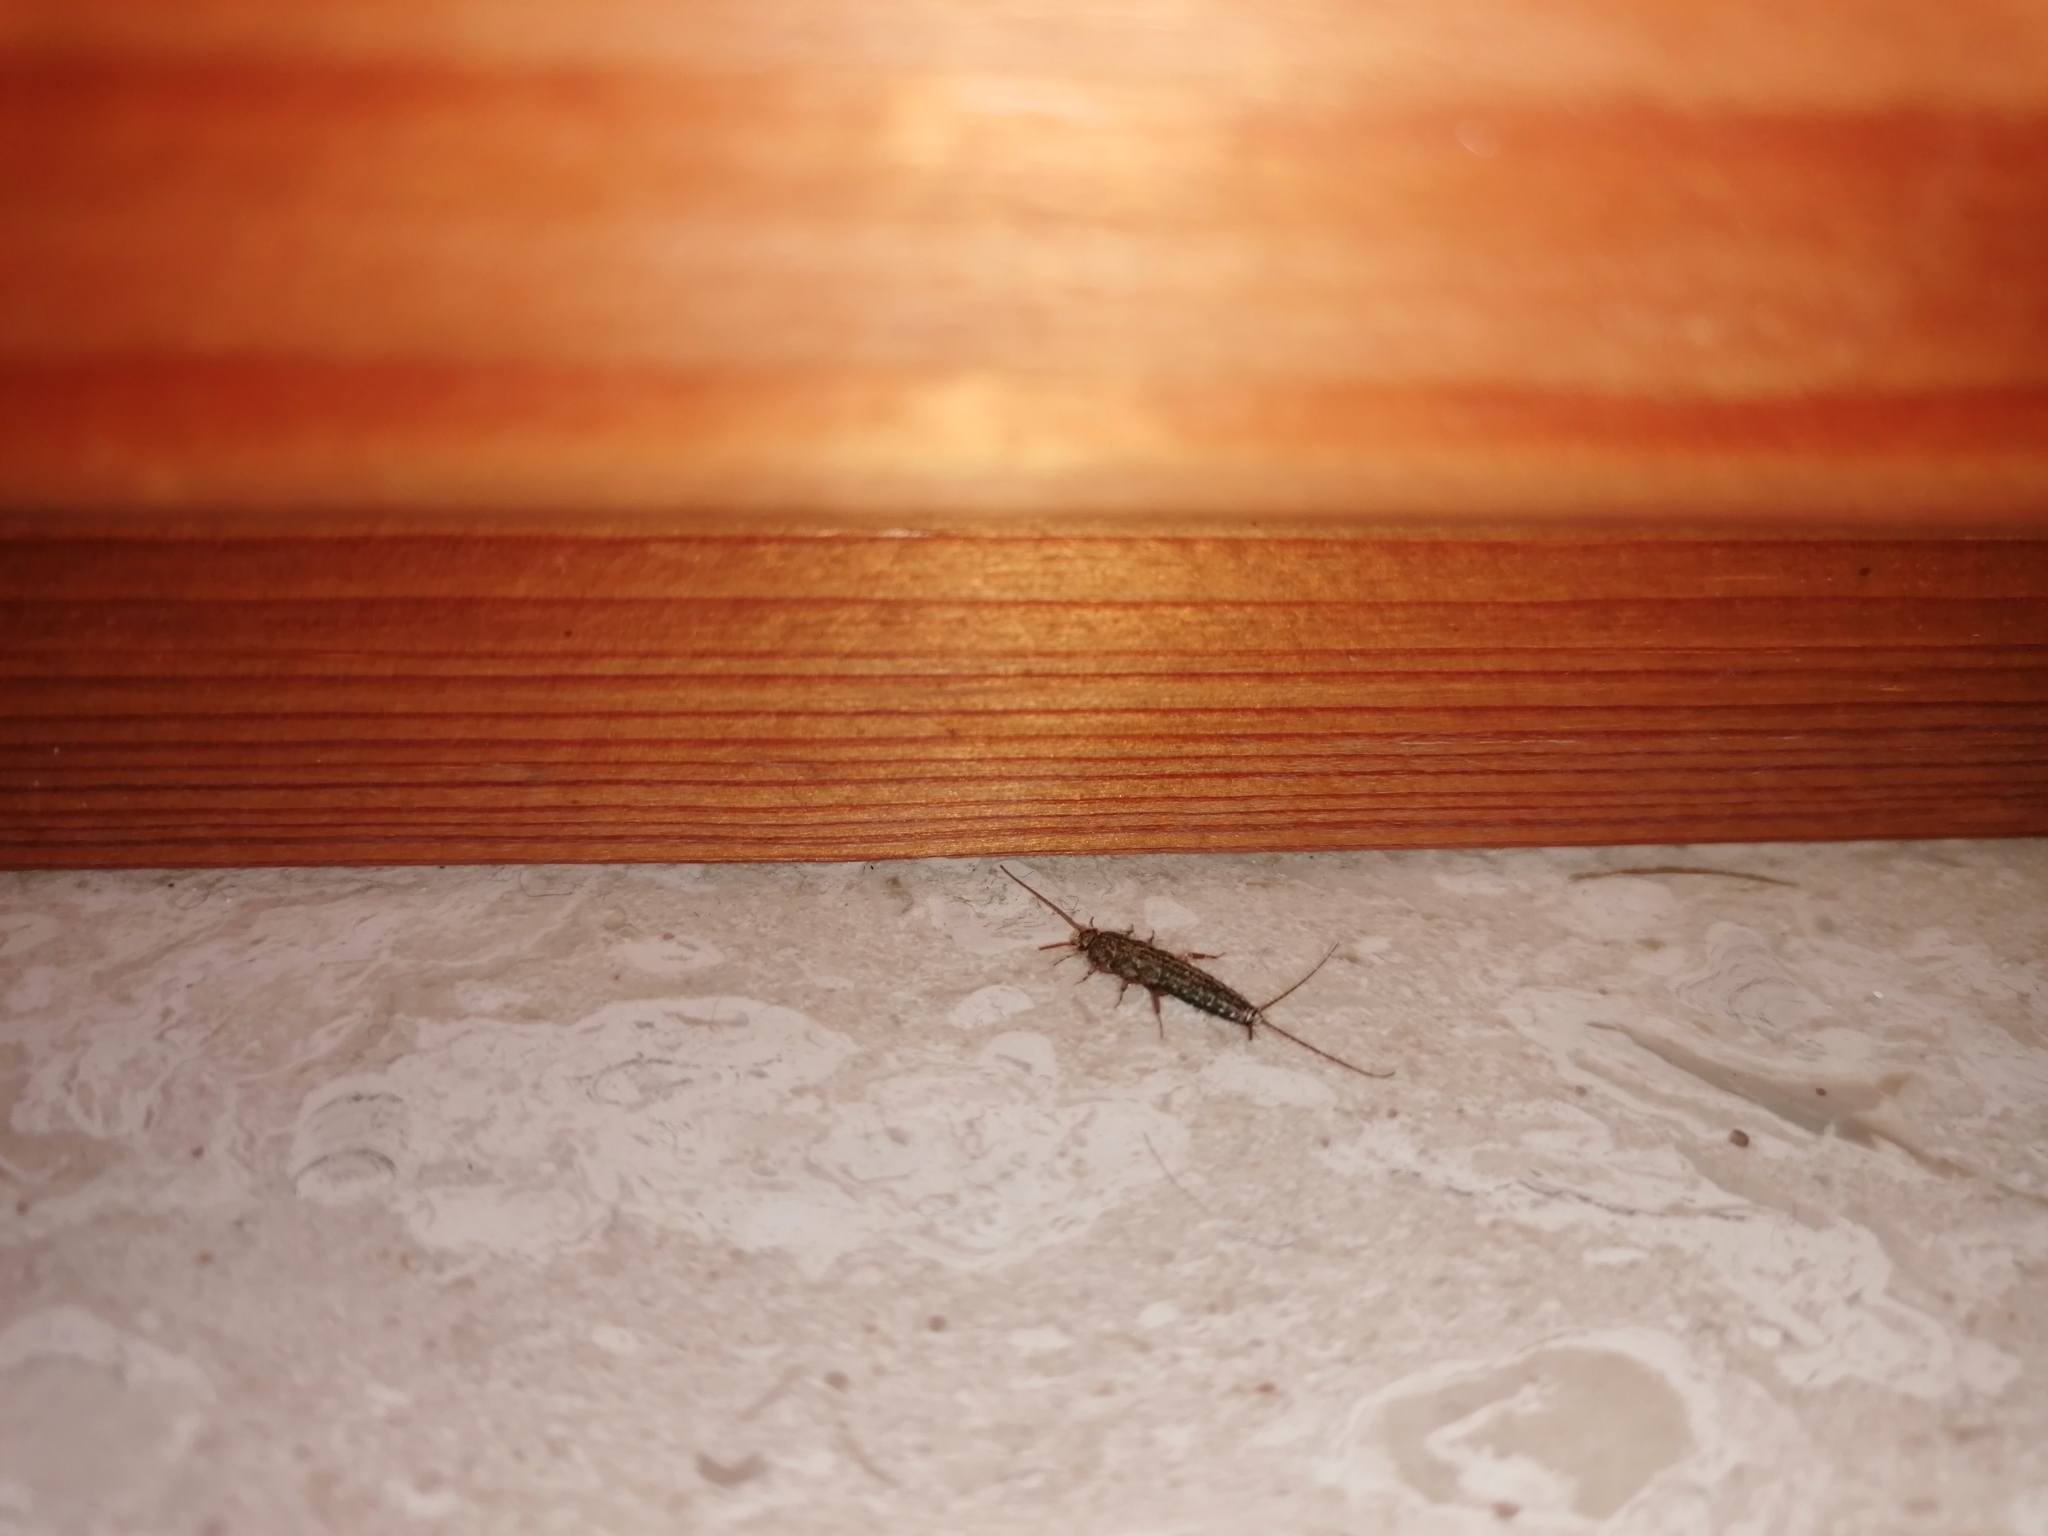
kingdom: Animalia
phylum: Arthropoda
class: Insecta
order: Zygentoma
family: Lepismatidae
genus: Ctenolepisma
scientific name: Ctenolepisma lineata
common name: Four-lined silverfish
